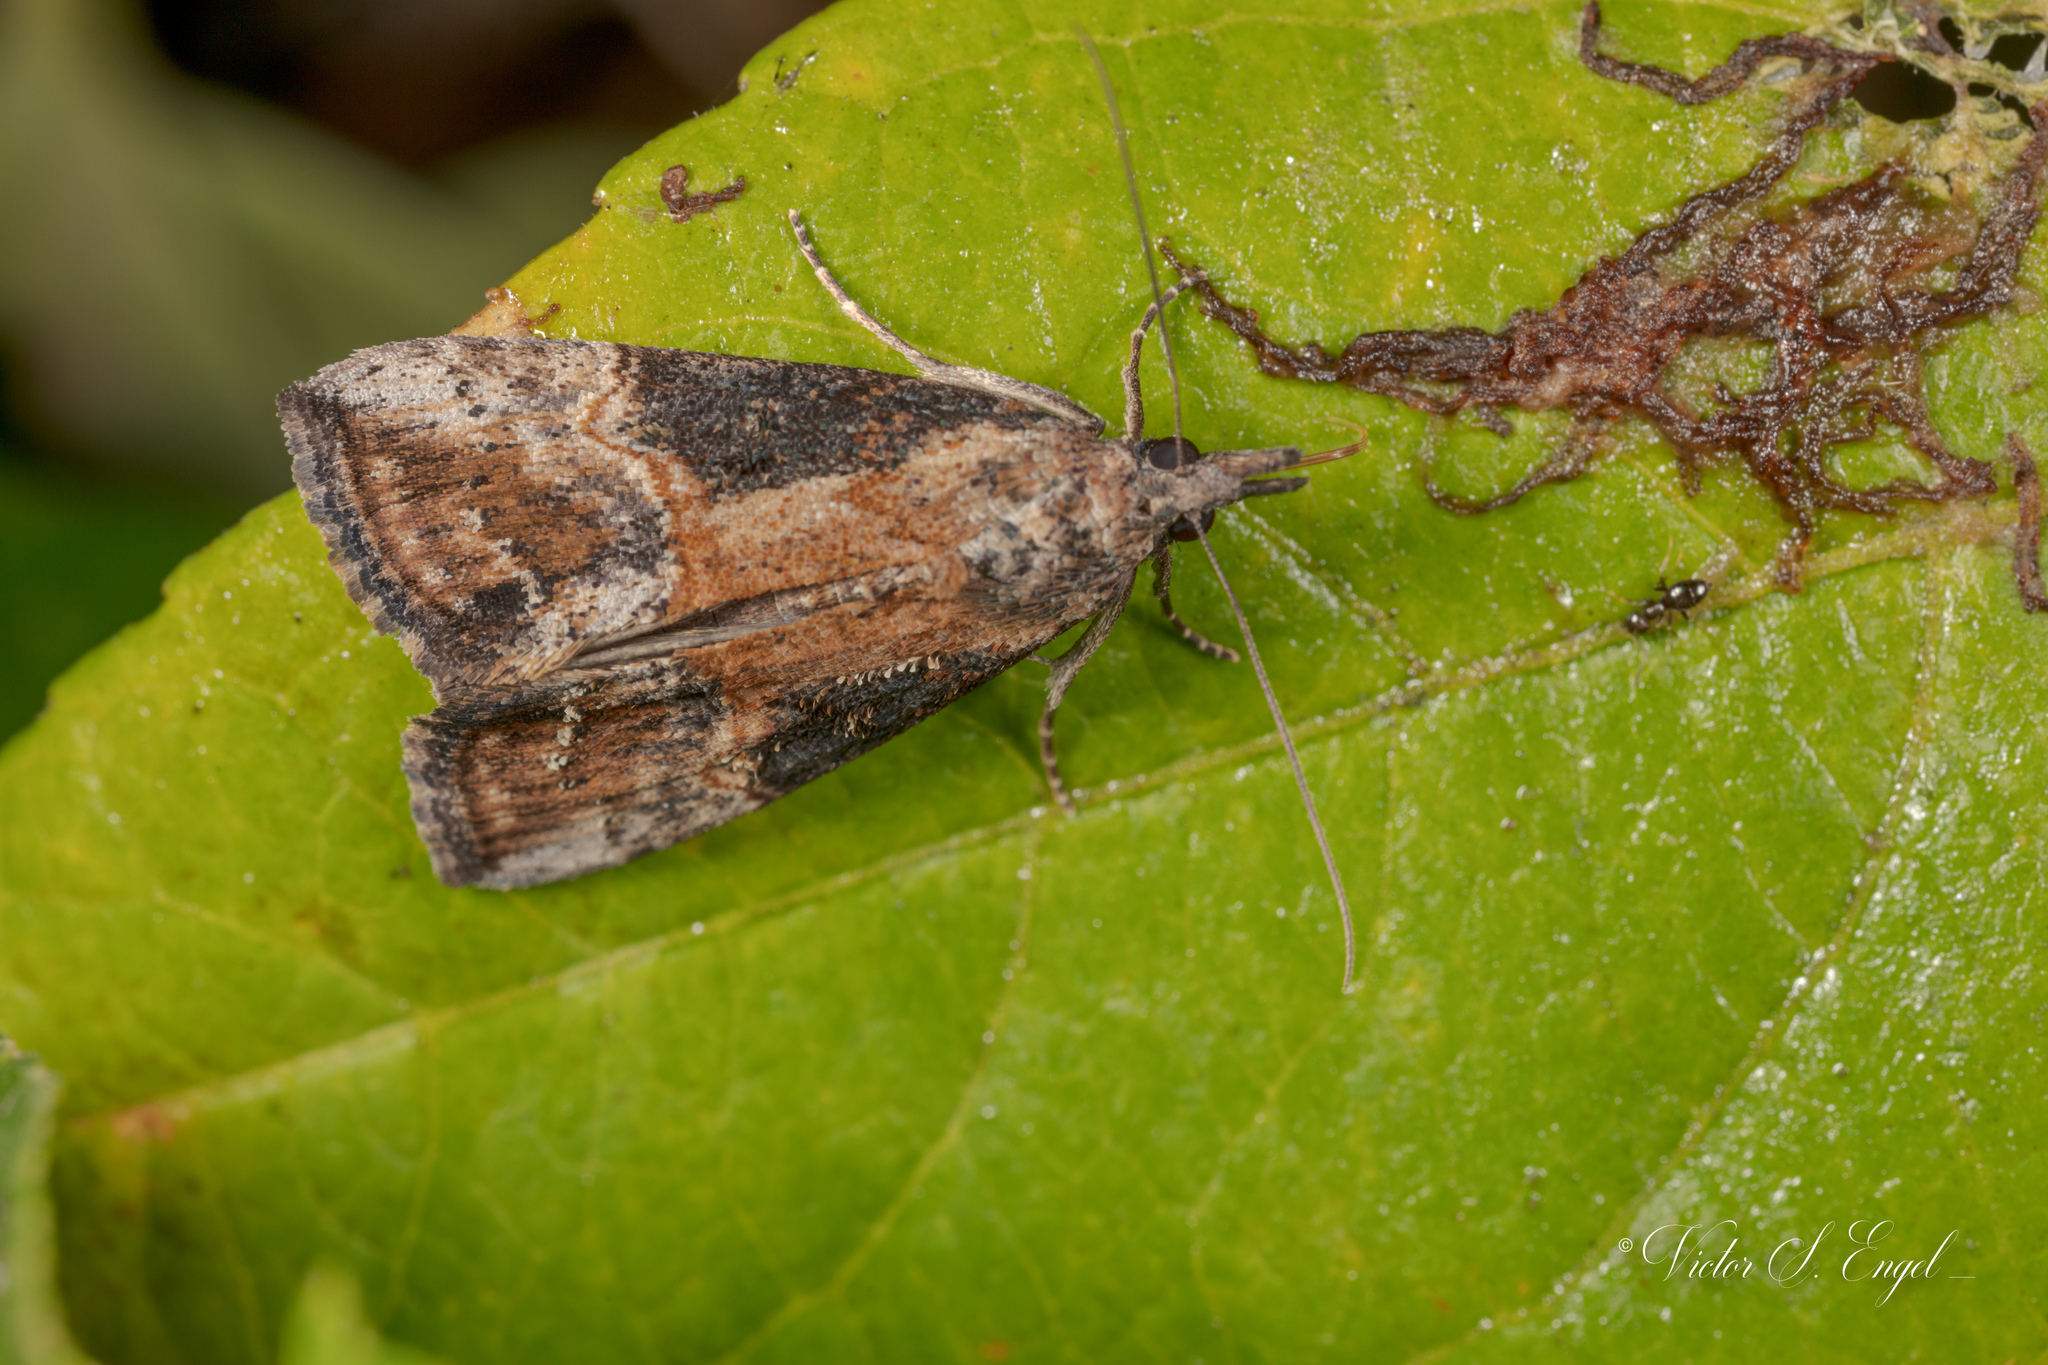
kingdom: Animalia
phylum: Arthropoda
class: Insecta
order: Lepidoptera
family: Erebidae
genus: Hypena
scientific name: Hypena scabra
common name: Green cloverworm
